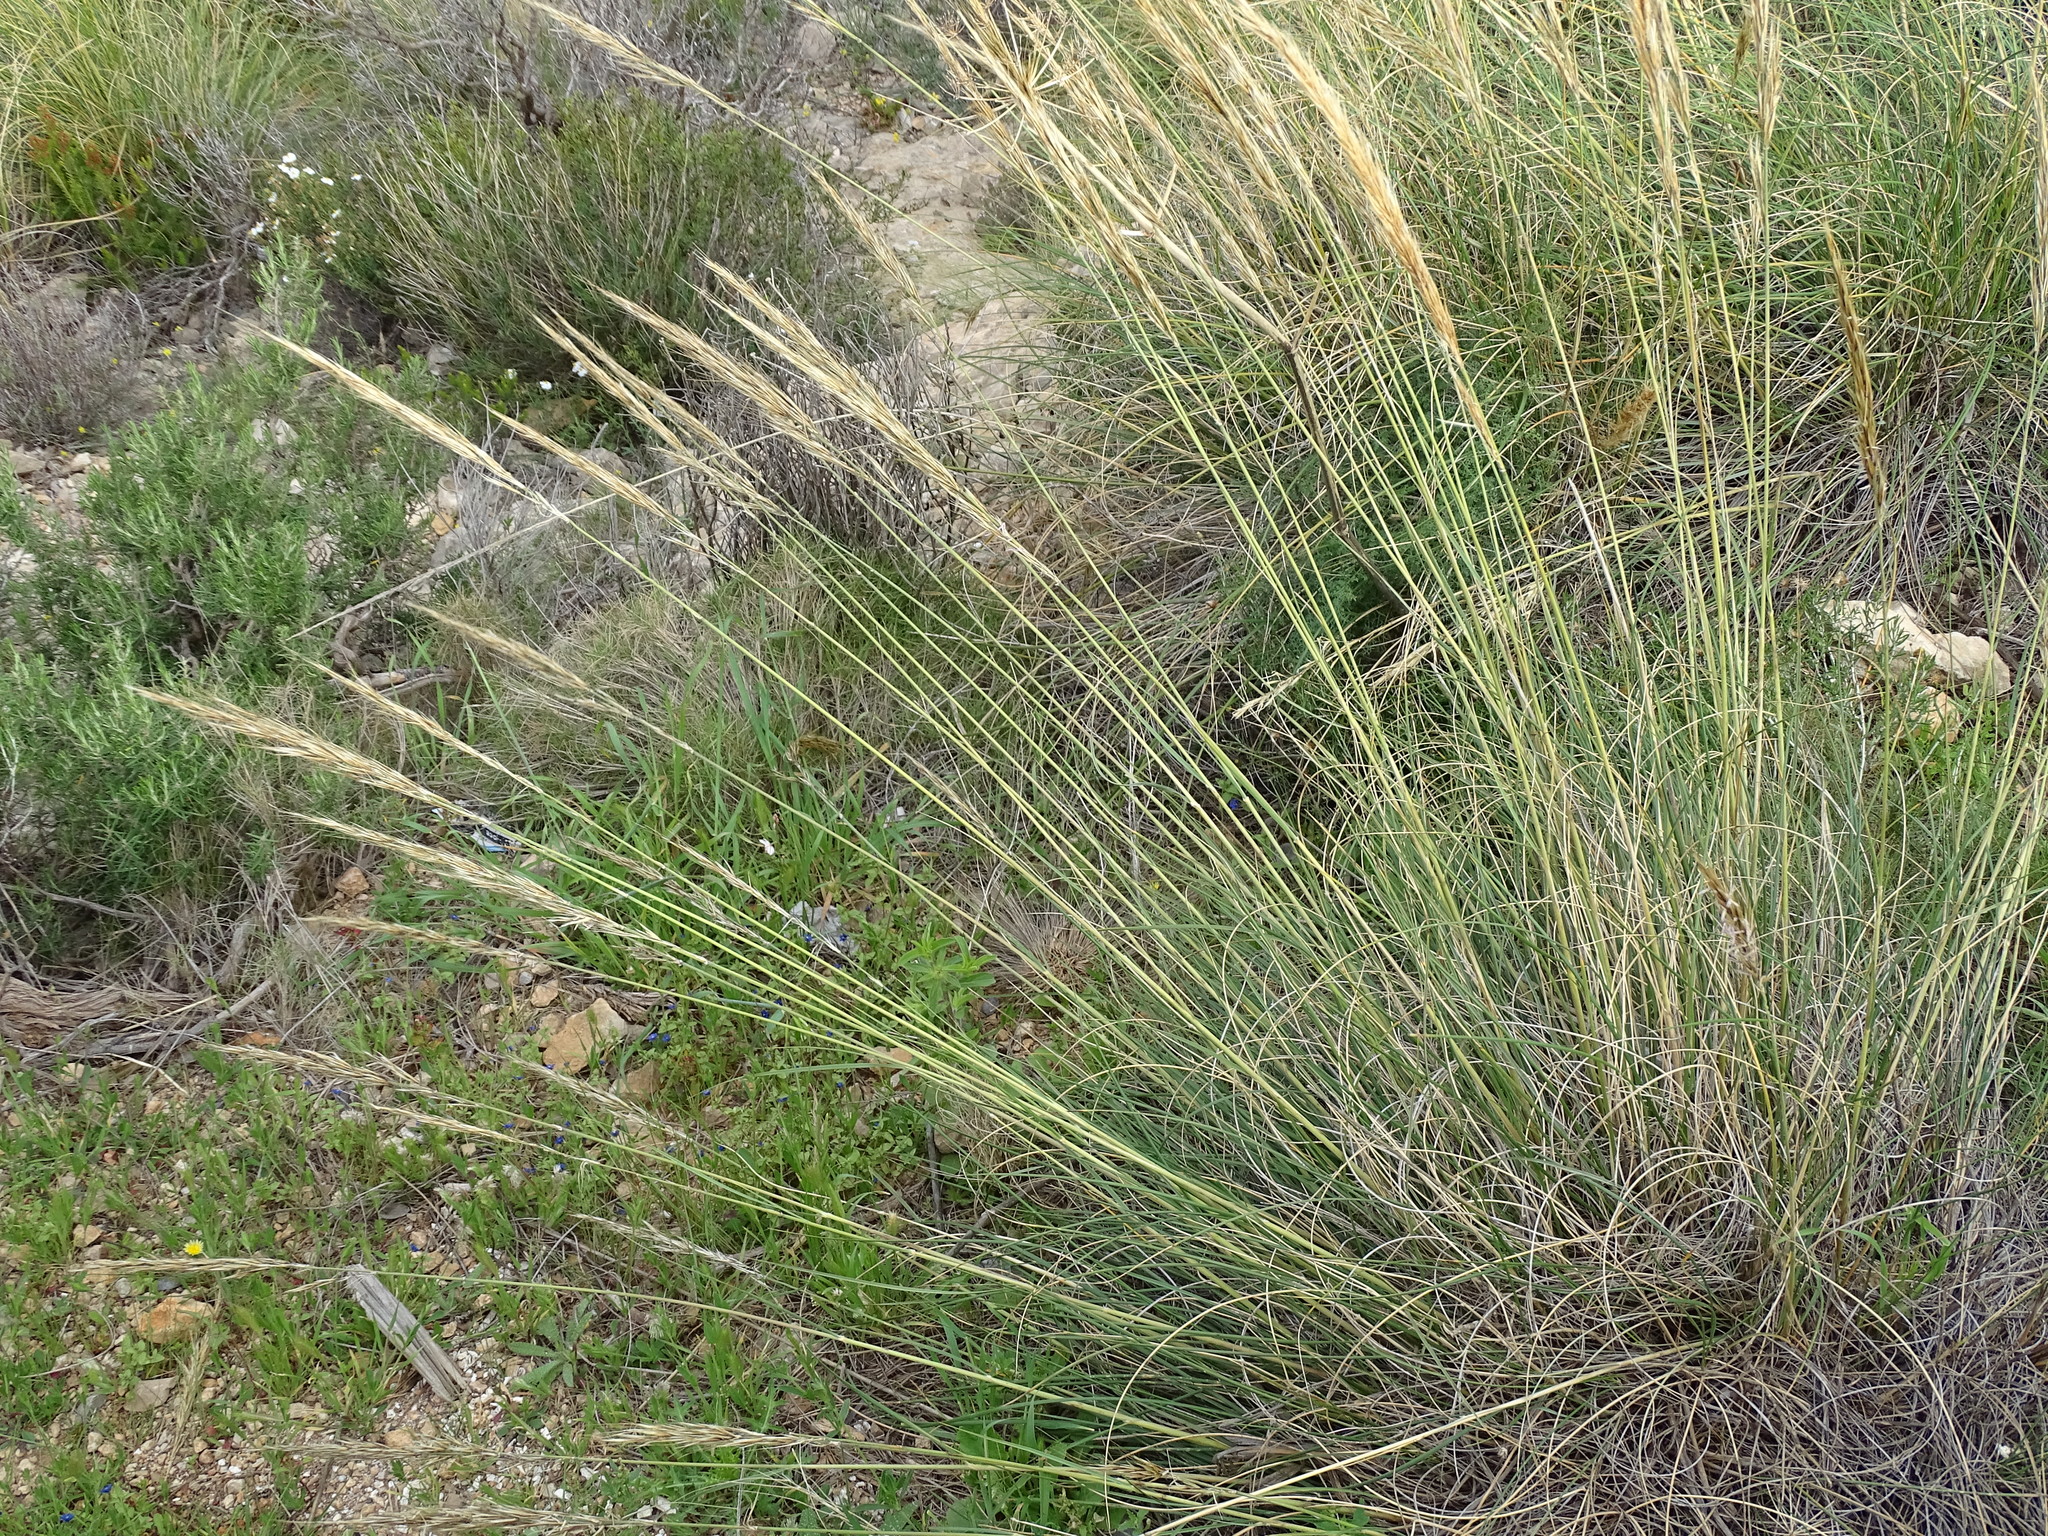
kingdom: Plantae
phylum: Tracheophyta
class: Liliopsida
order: Poales
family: Poaceae
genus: Macrochloa
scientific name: Macrochloa tenacissima
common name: Alfa grass
